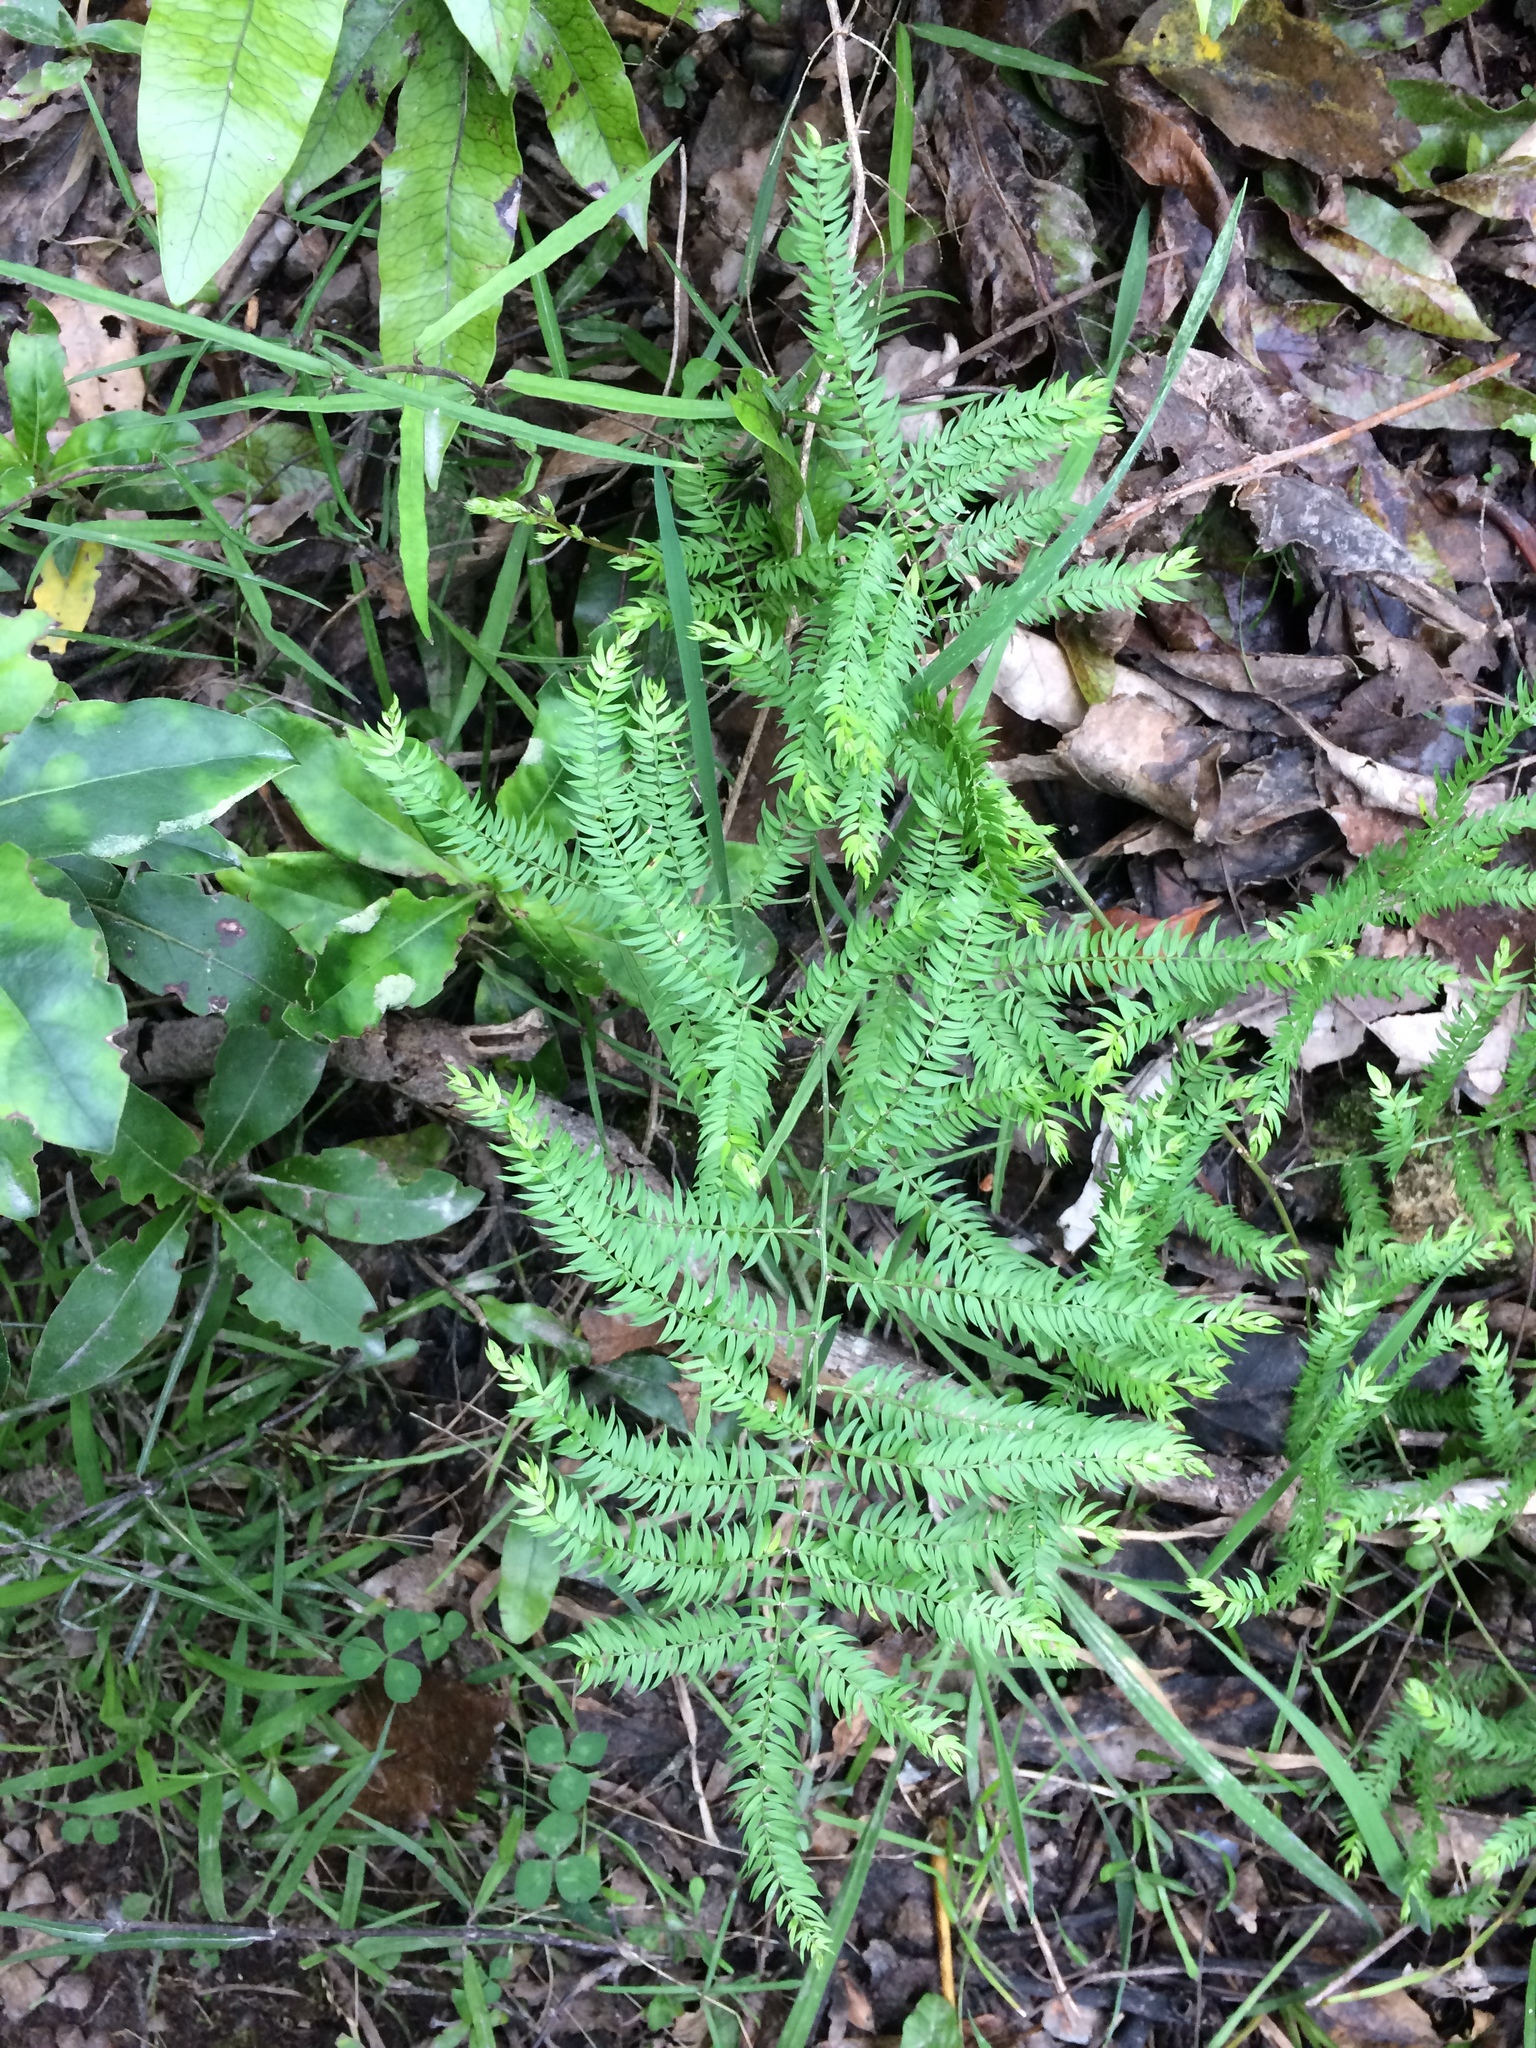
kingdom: Plantae
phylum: Tracheophyta
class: Liliopsida
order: Asparagales
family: Asparagaceae
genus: Asparagus
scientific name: Asparagus scandens
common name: Asparagus-fern
